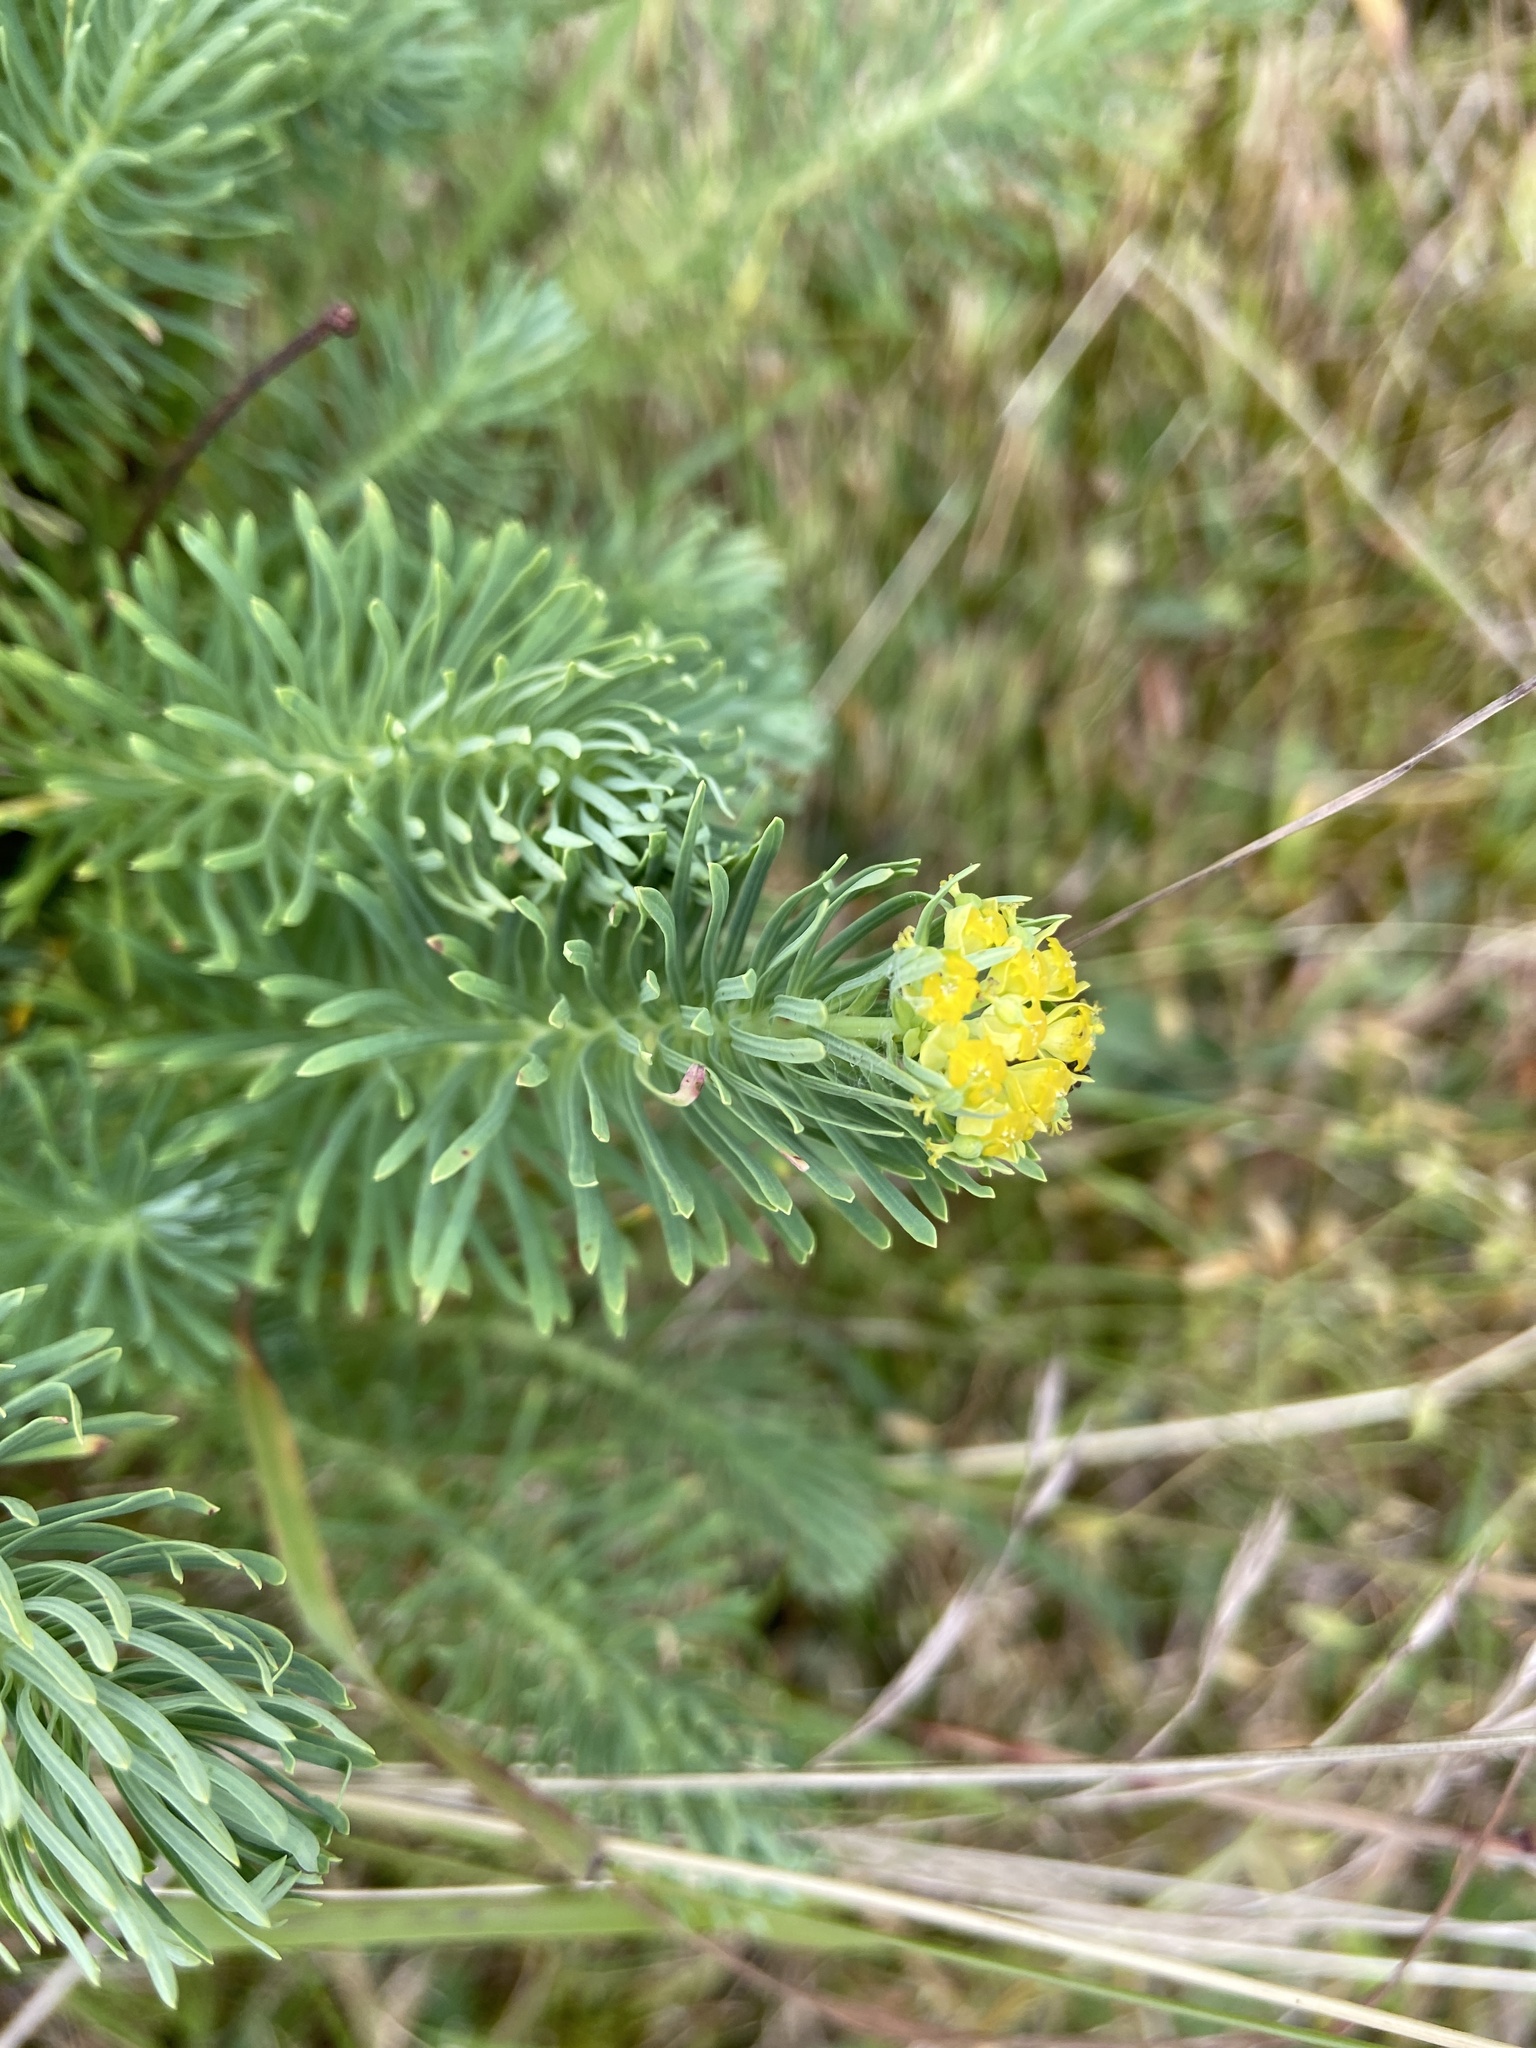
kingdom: Plantae
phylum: Tracheophyta
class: Magnoliopsida
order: Malpighiales
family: Euphorbiaceae
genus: Euphorbia
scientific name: Euphorbia cyparissias
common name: Cypress spurge
